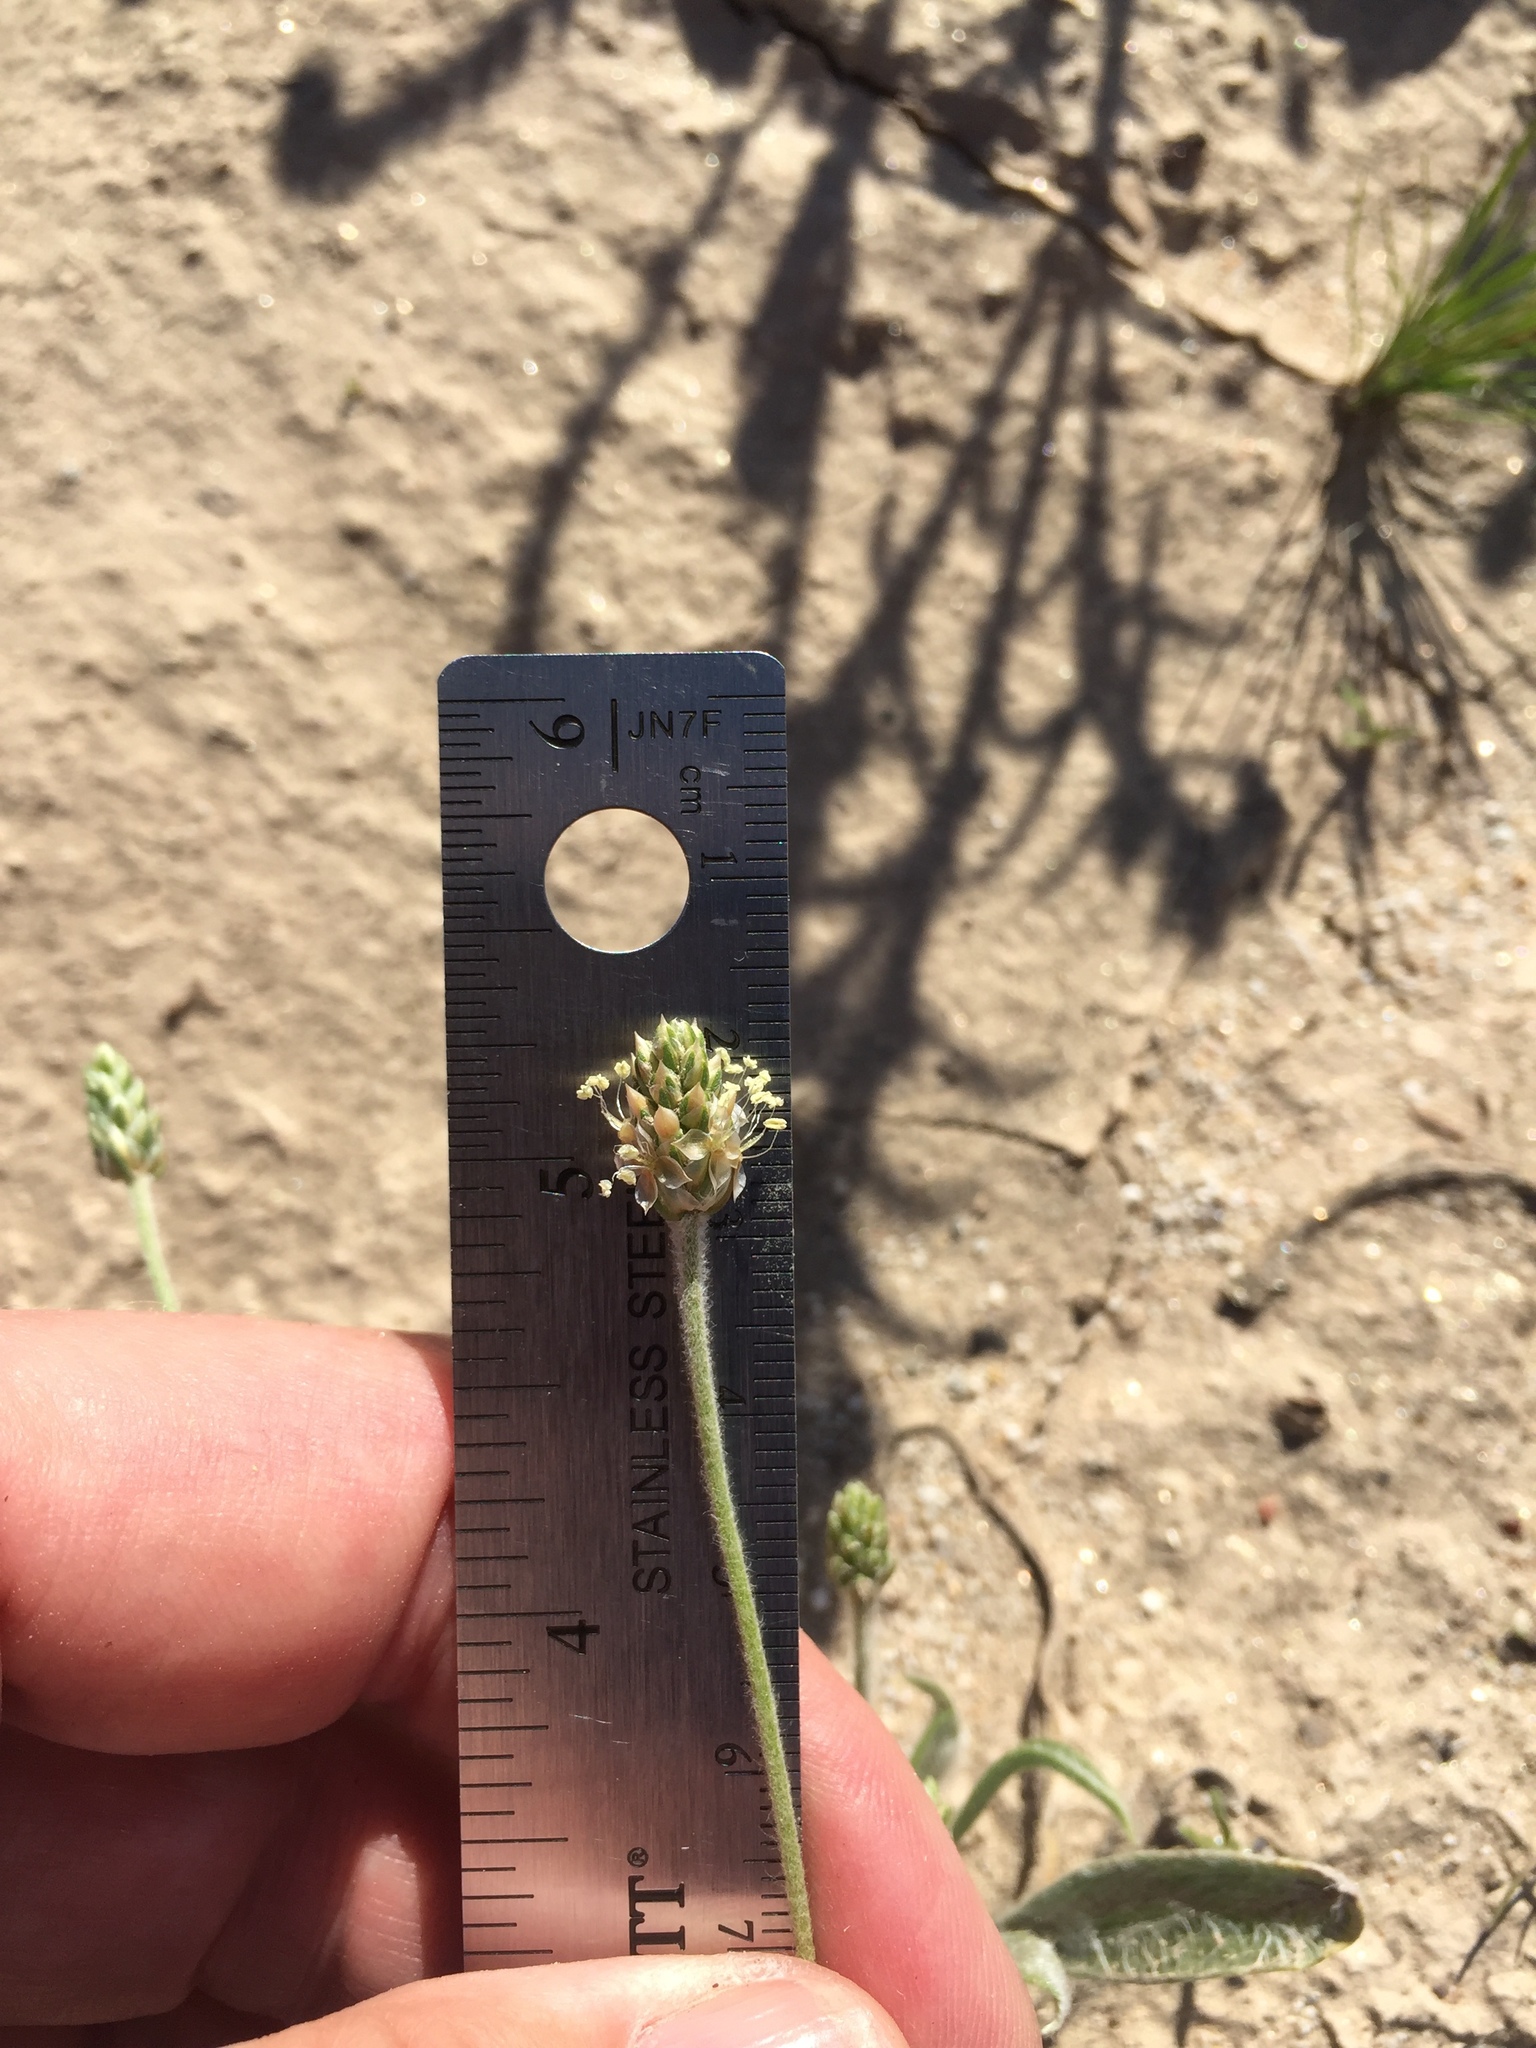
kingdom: Plantae
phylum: Tracheophyta
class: Magnoliopsida
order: Lamiales
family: Plantaginaceae
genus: Plantago
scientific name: Plantago ovata
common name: Blond plantain
